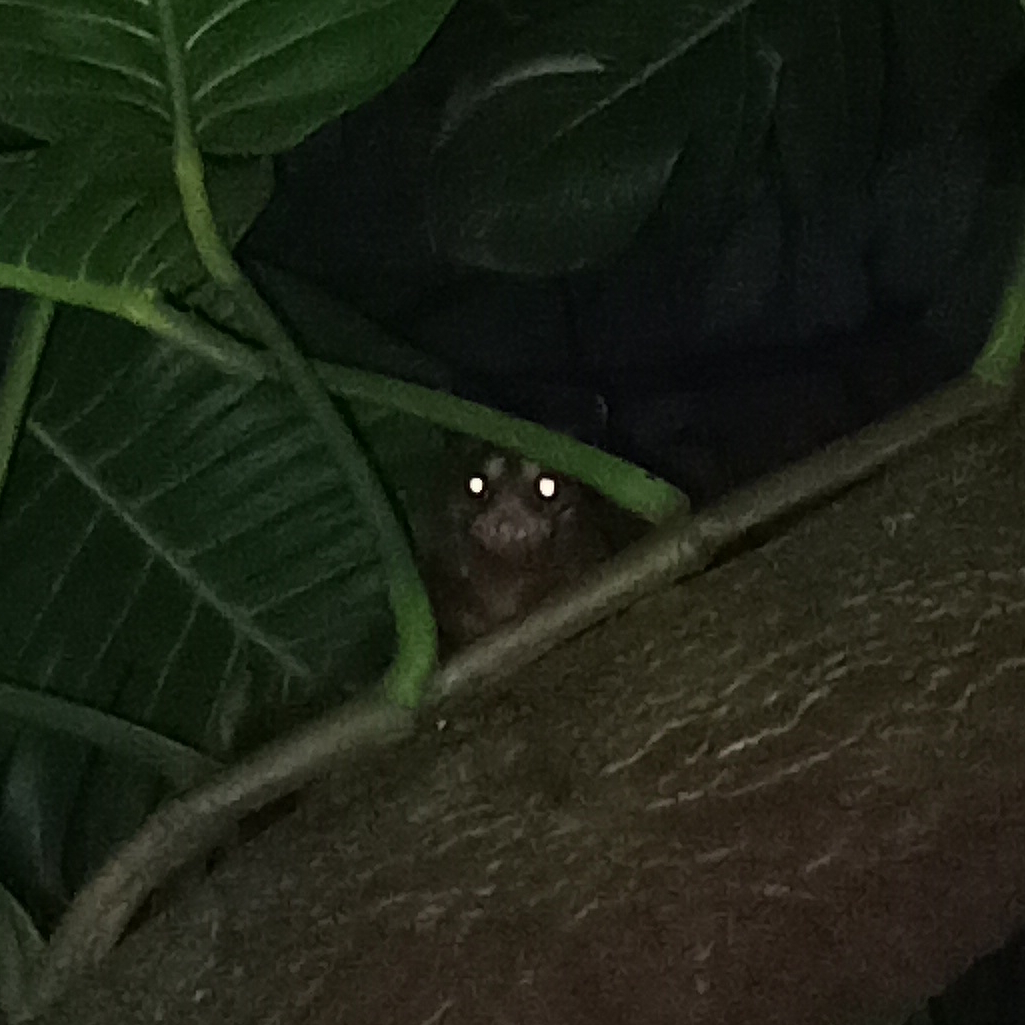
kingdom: Animalia
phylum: Chordata
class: Mammalia
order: Didelphimorphia
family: Didelphidae
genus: Didelphis
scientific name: Didelphis aurita
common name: Big-eared opossum
